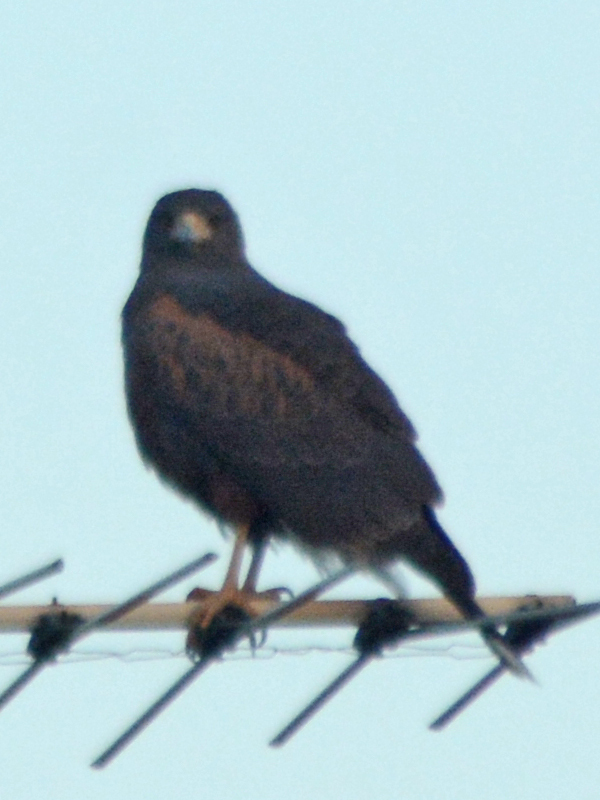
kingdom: Animalia
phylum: Chordata
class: Aves
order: Accipitriformes
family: Accipitridae
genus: Parabuteo
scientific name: Parabuteo unicinctus
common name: Harris's hawk
